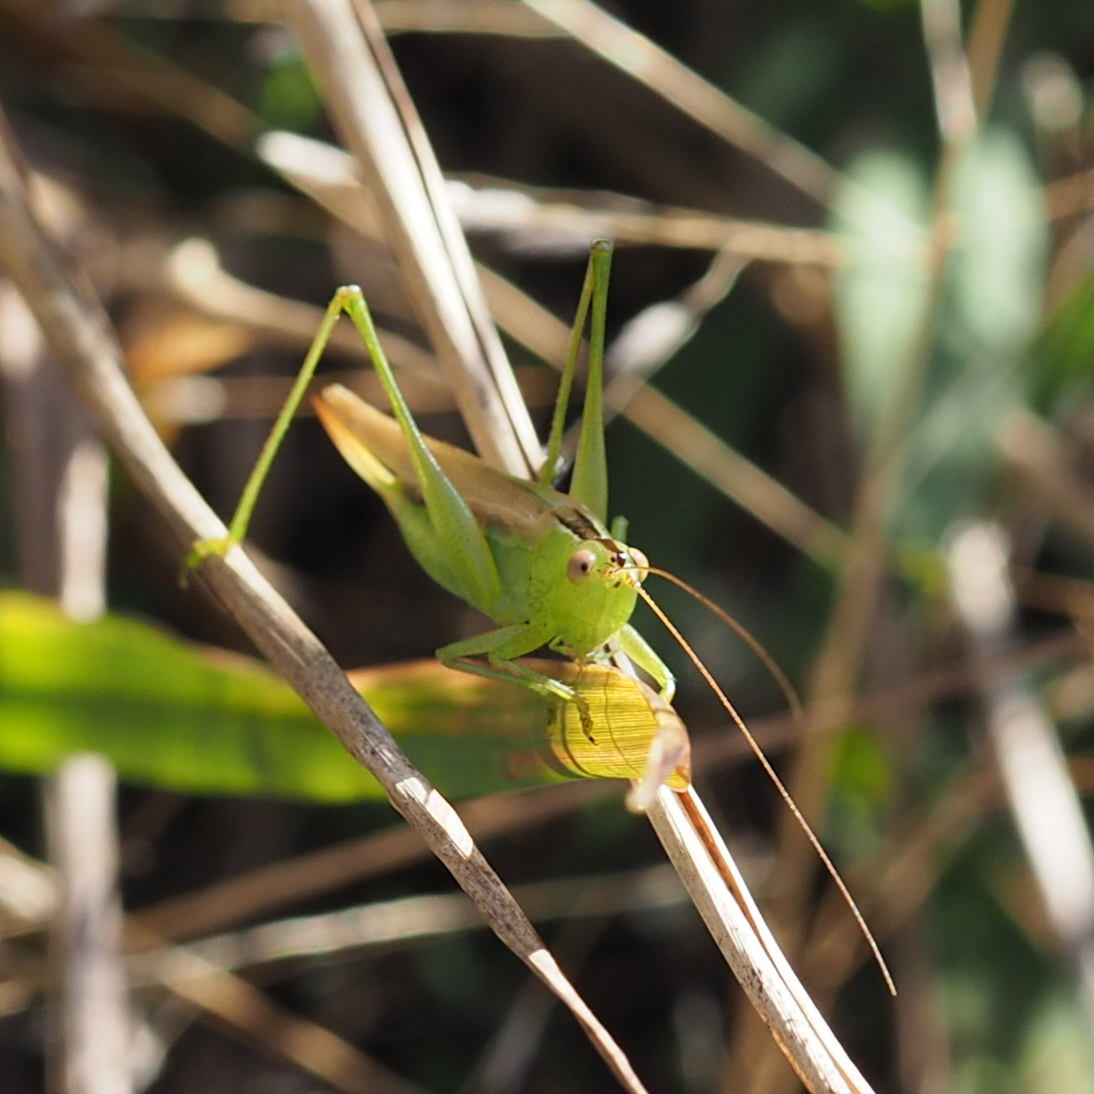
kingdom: Animalia
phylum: Arthropoda
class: Insecta
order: Orthoptera
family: Tettigoniidae
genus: Conocephalus
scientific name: Conocephalus fasciatus
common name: Slender meadow katydid
